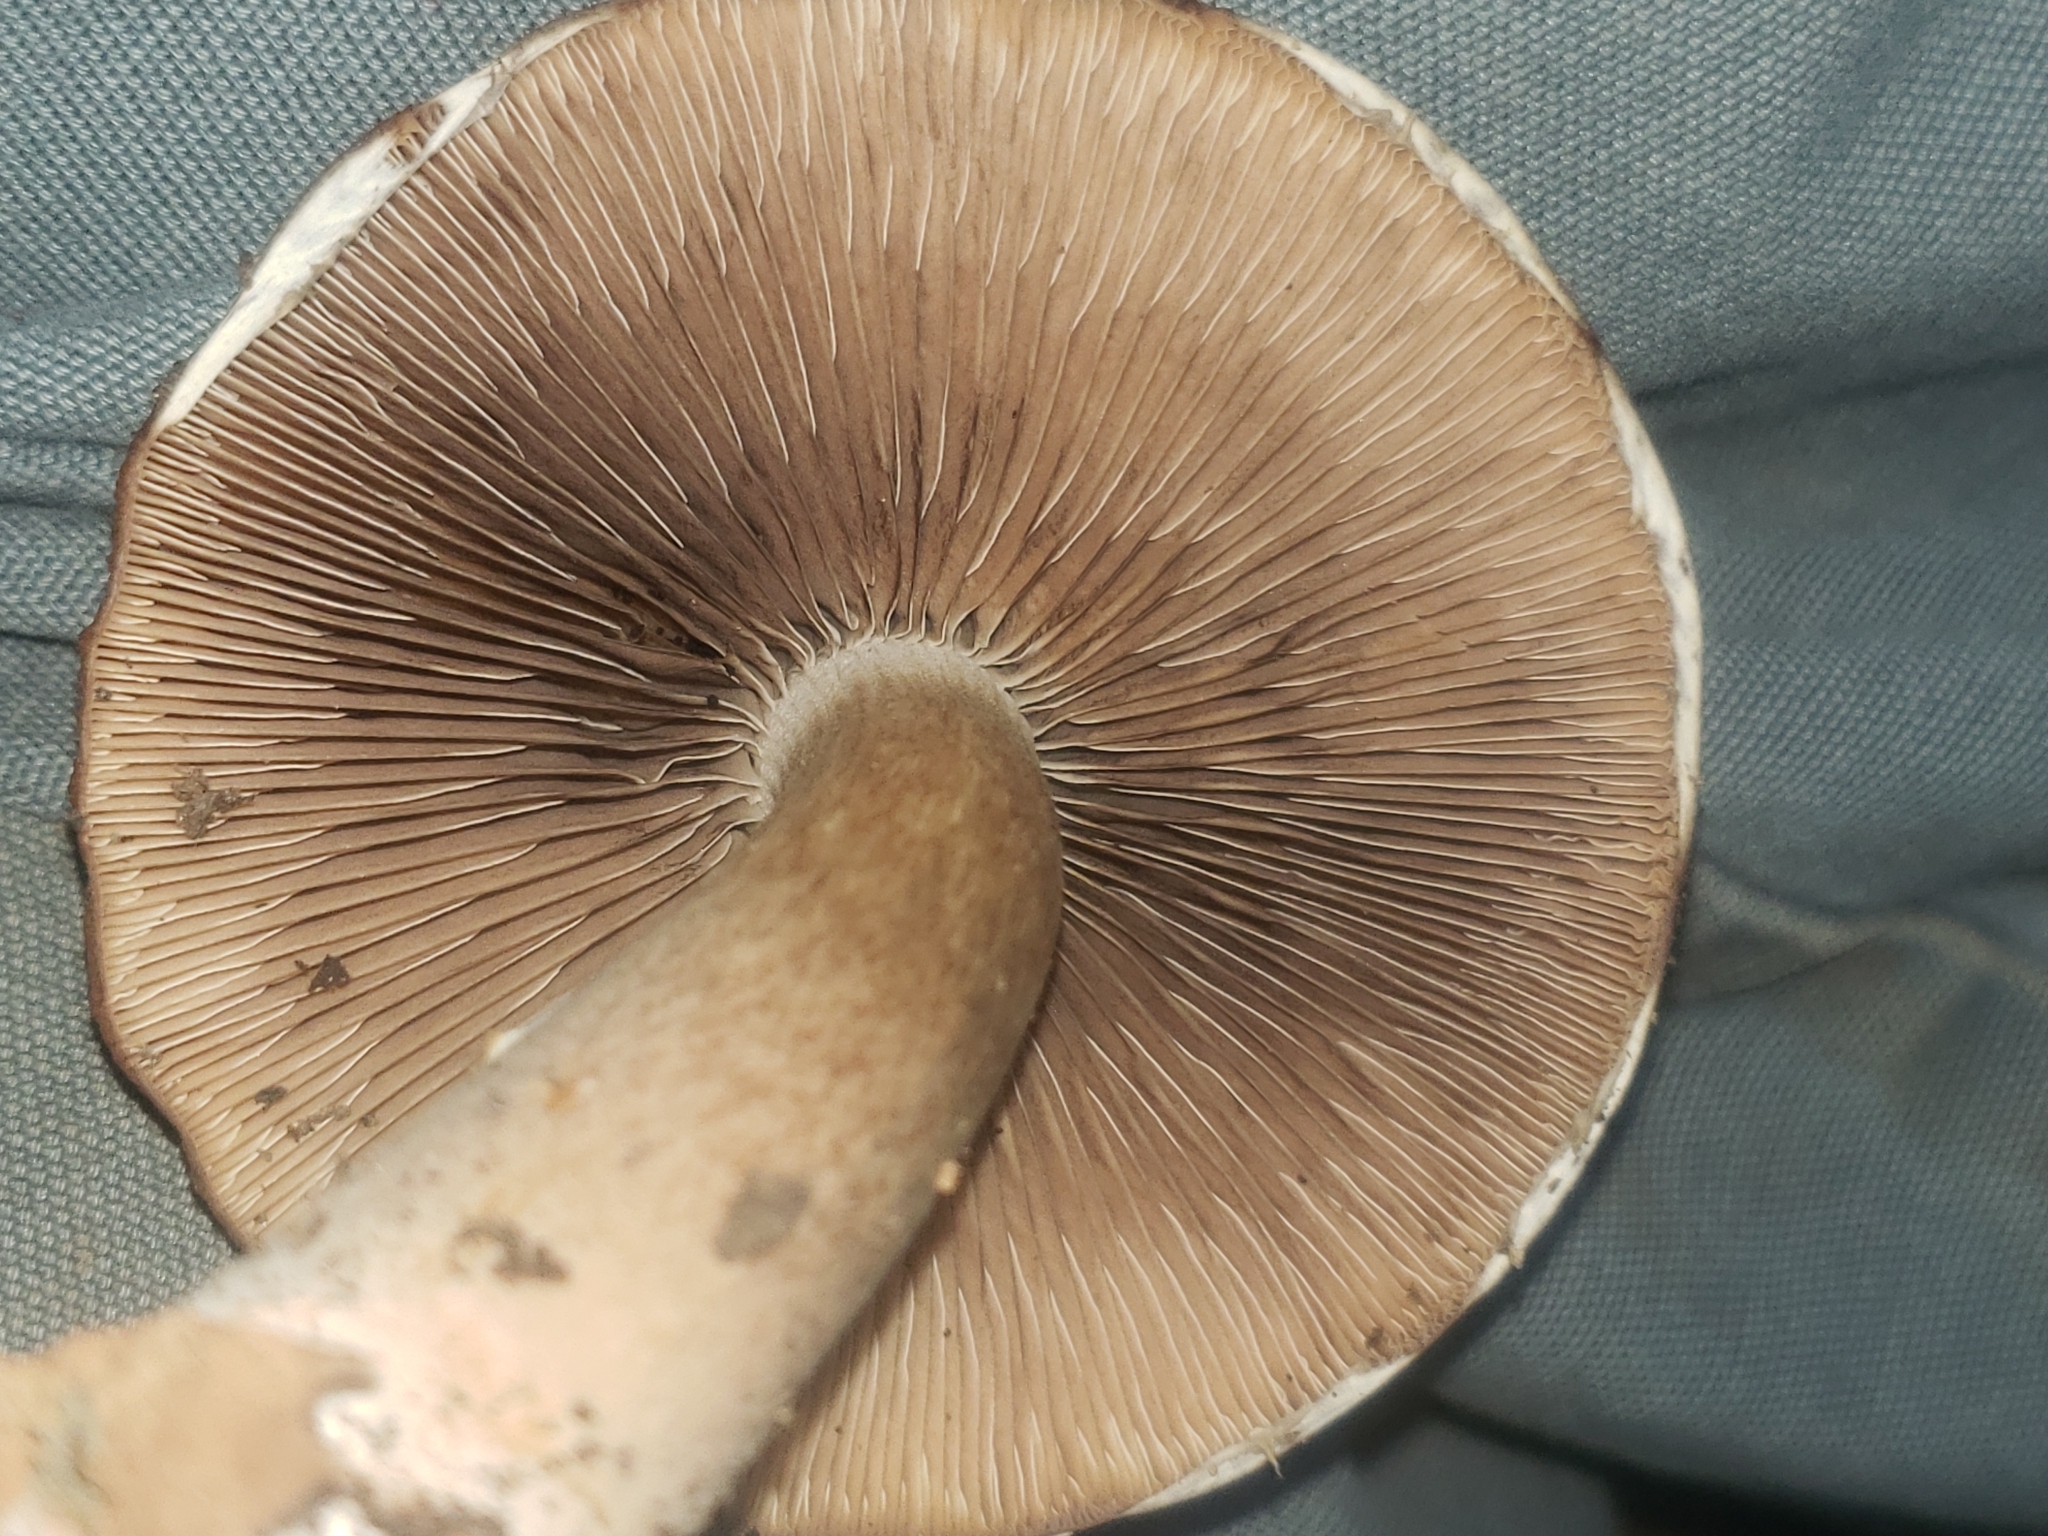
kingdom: Fungi
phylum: Basidiomycota
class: Agaricomycetes
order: Agaricales
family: Psathyrellaceae
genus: Typhrasa
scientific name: Typhrasa gossypina
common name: Wrinkled psathyrella
